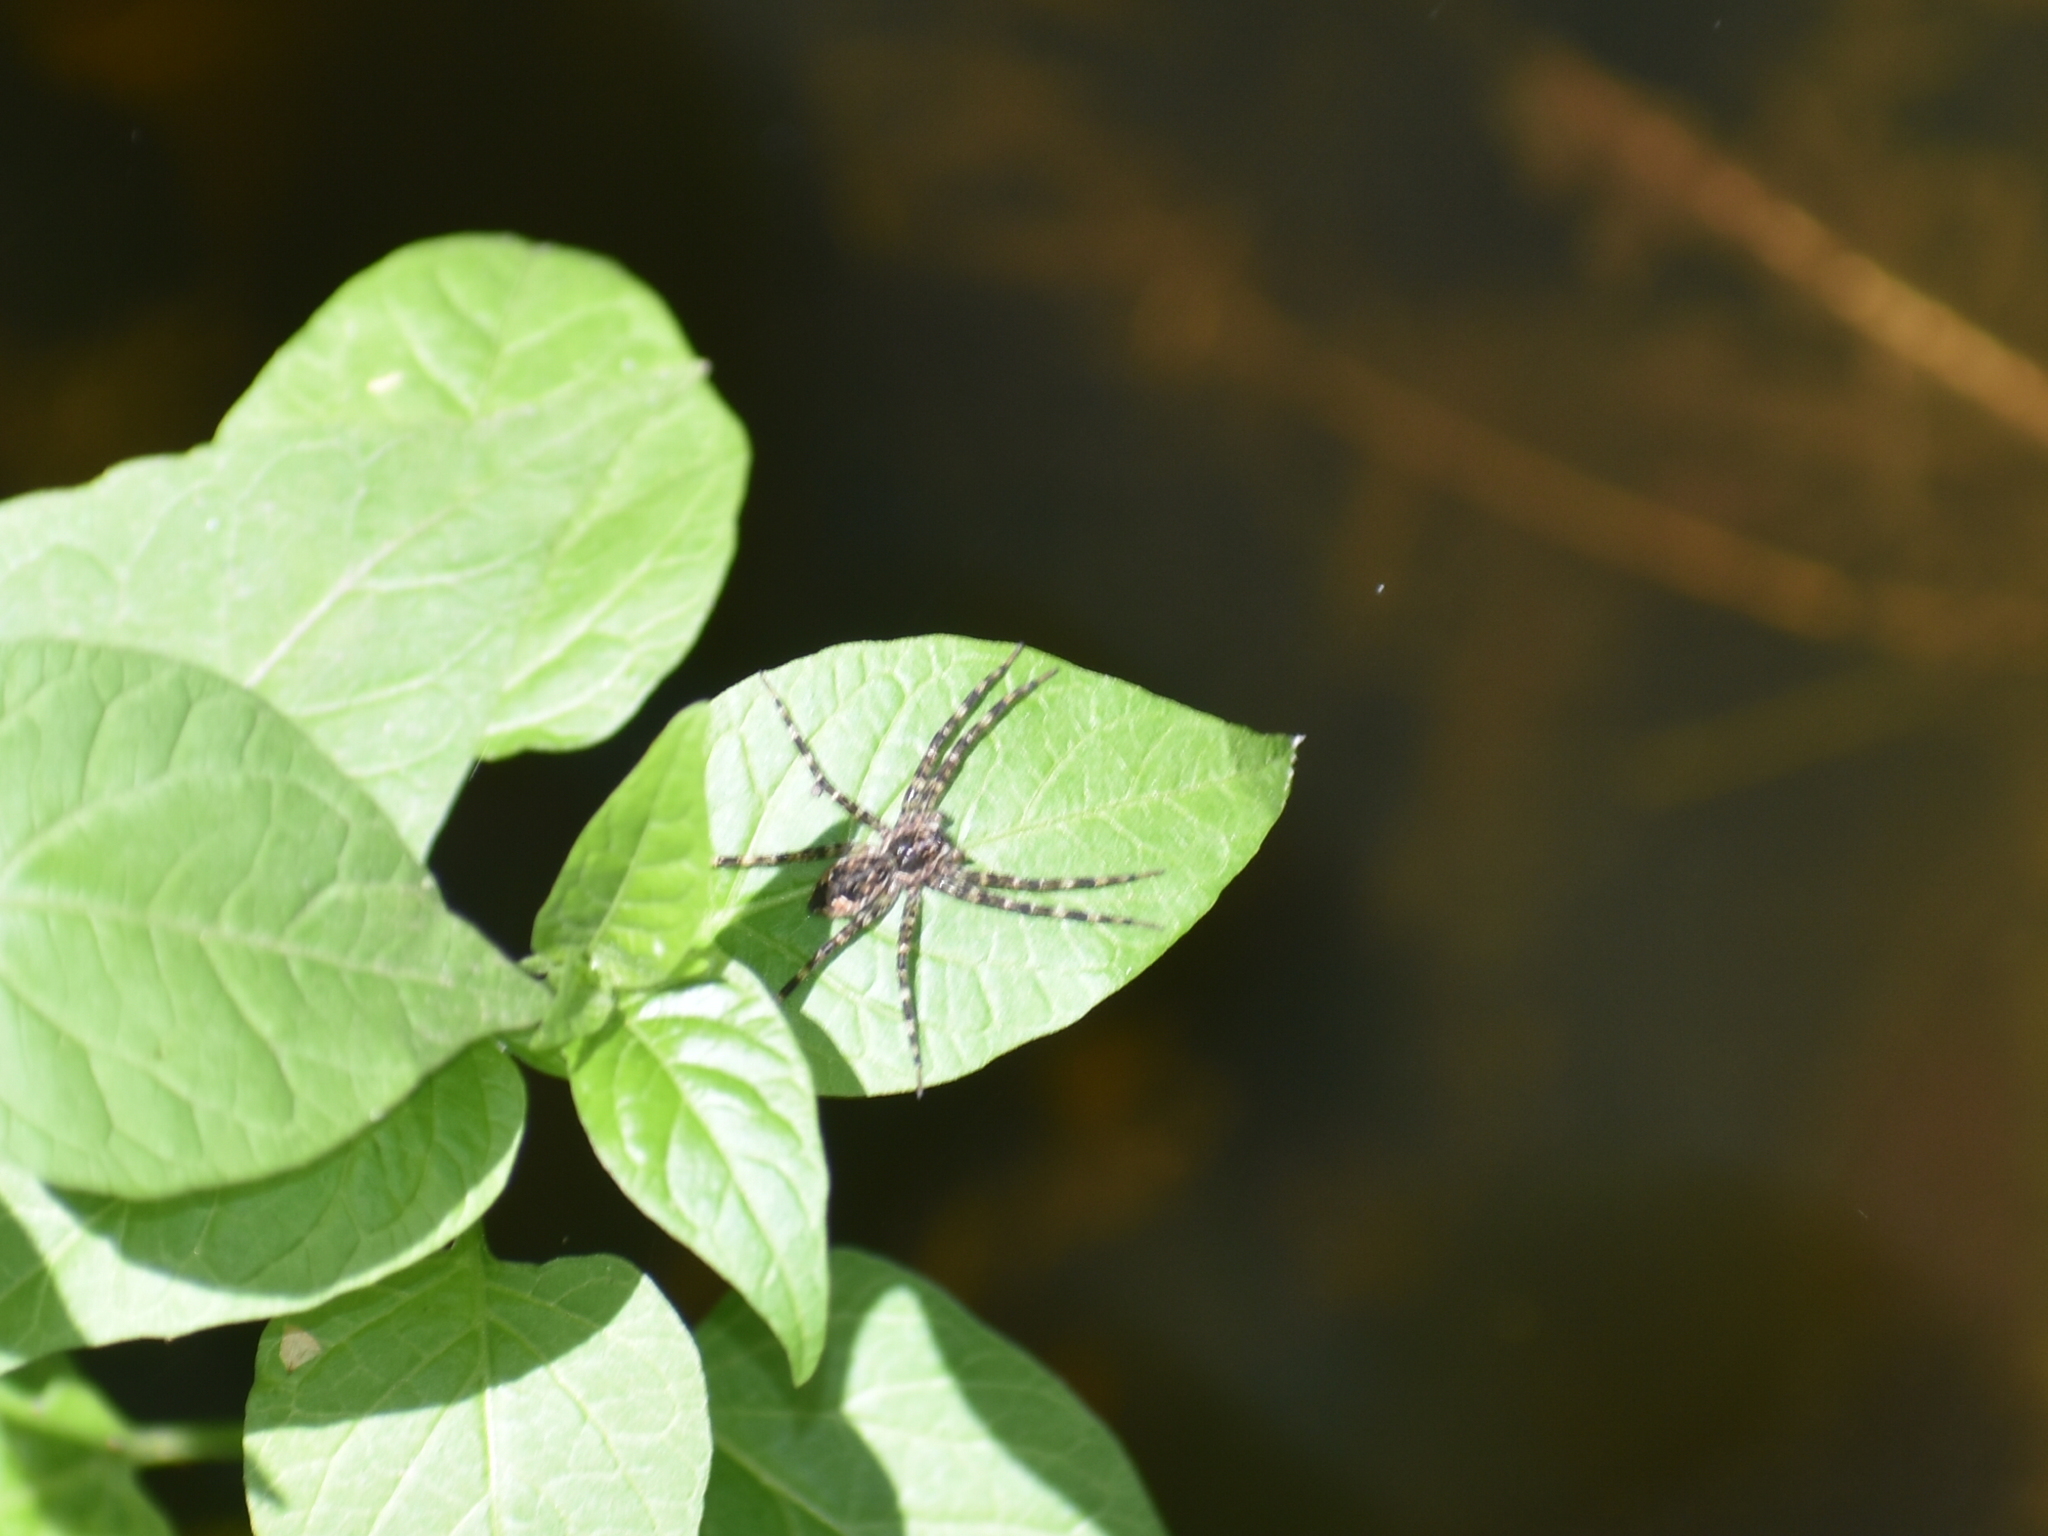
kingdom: Animalia
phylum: Arthropoda
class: Arachnida
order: Araneae
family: Pisauridae
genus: Dolomedes
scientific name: Dolomedes tenebrosus
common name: Dark fishing spider
